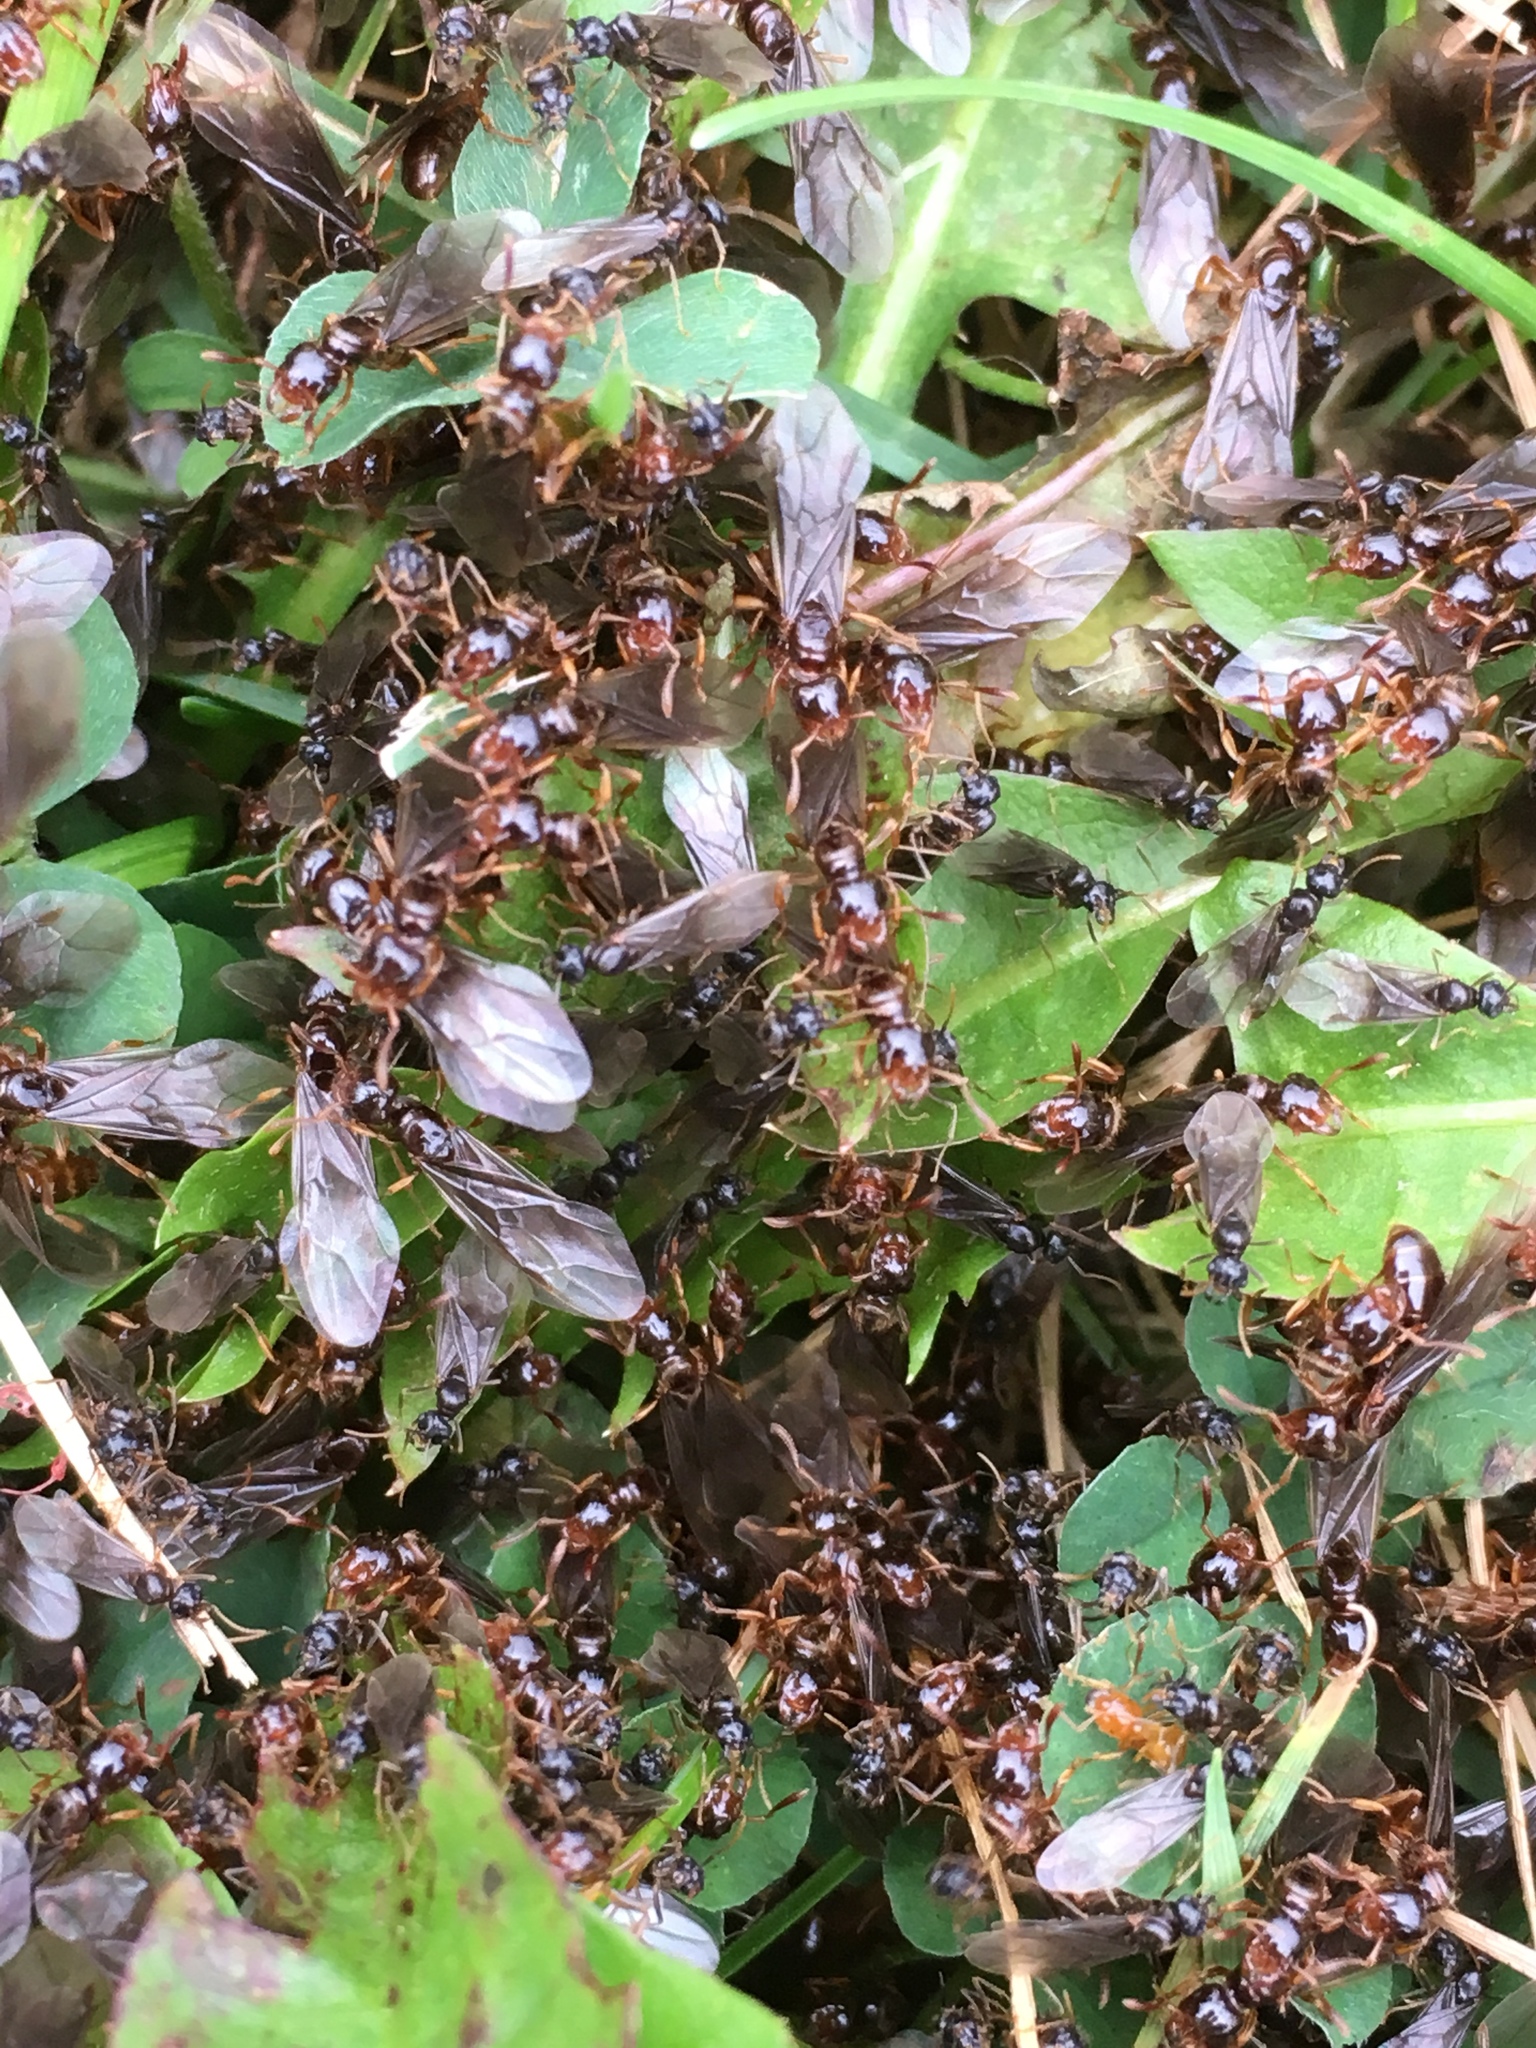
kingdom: Animalia
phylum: Arthropoda
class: Insecta
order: Hymenoptera
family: Formicidae
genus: Lasius
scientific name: Lasius claviger
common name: Common citronella ant
